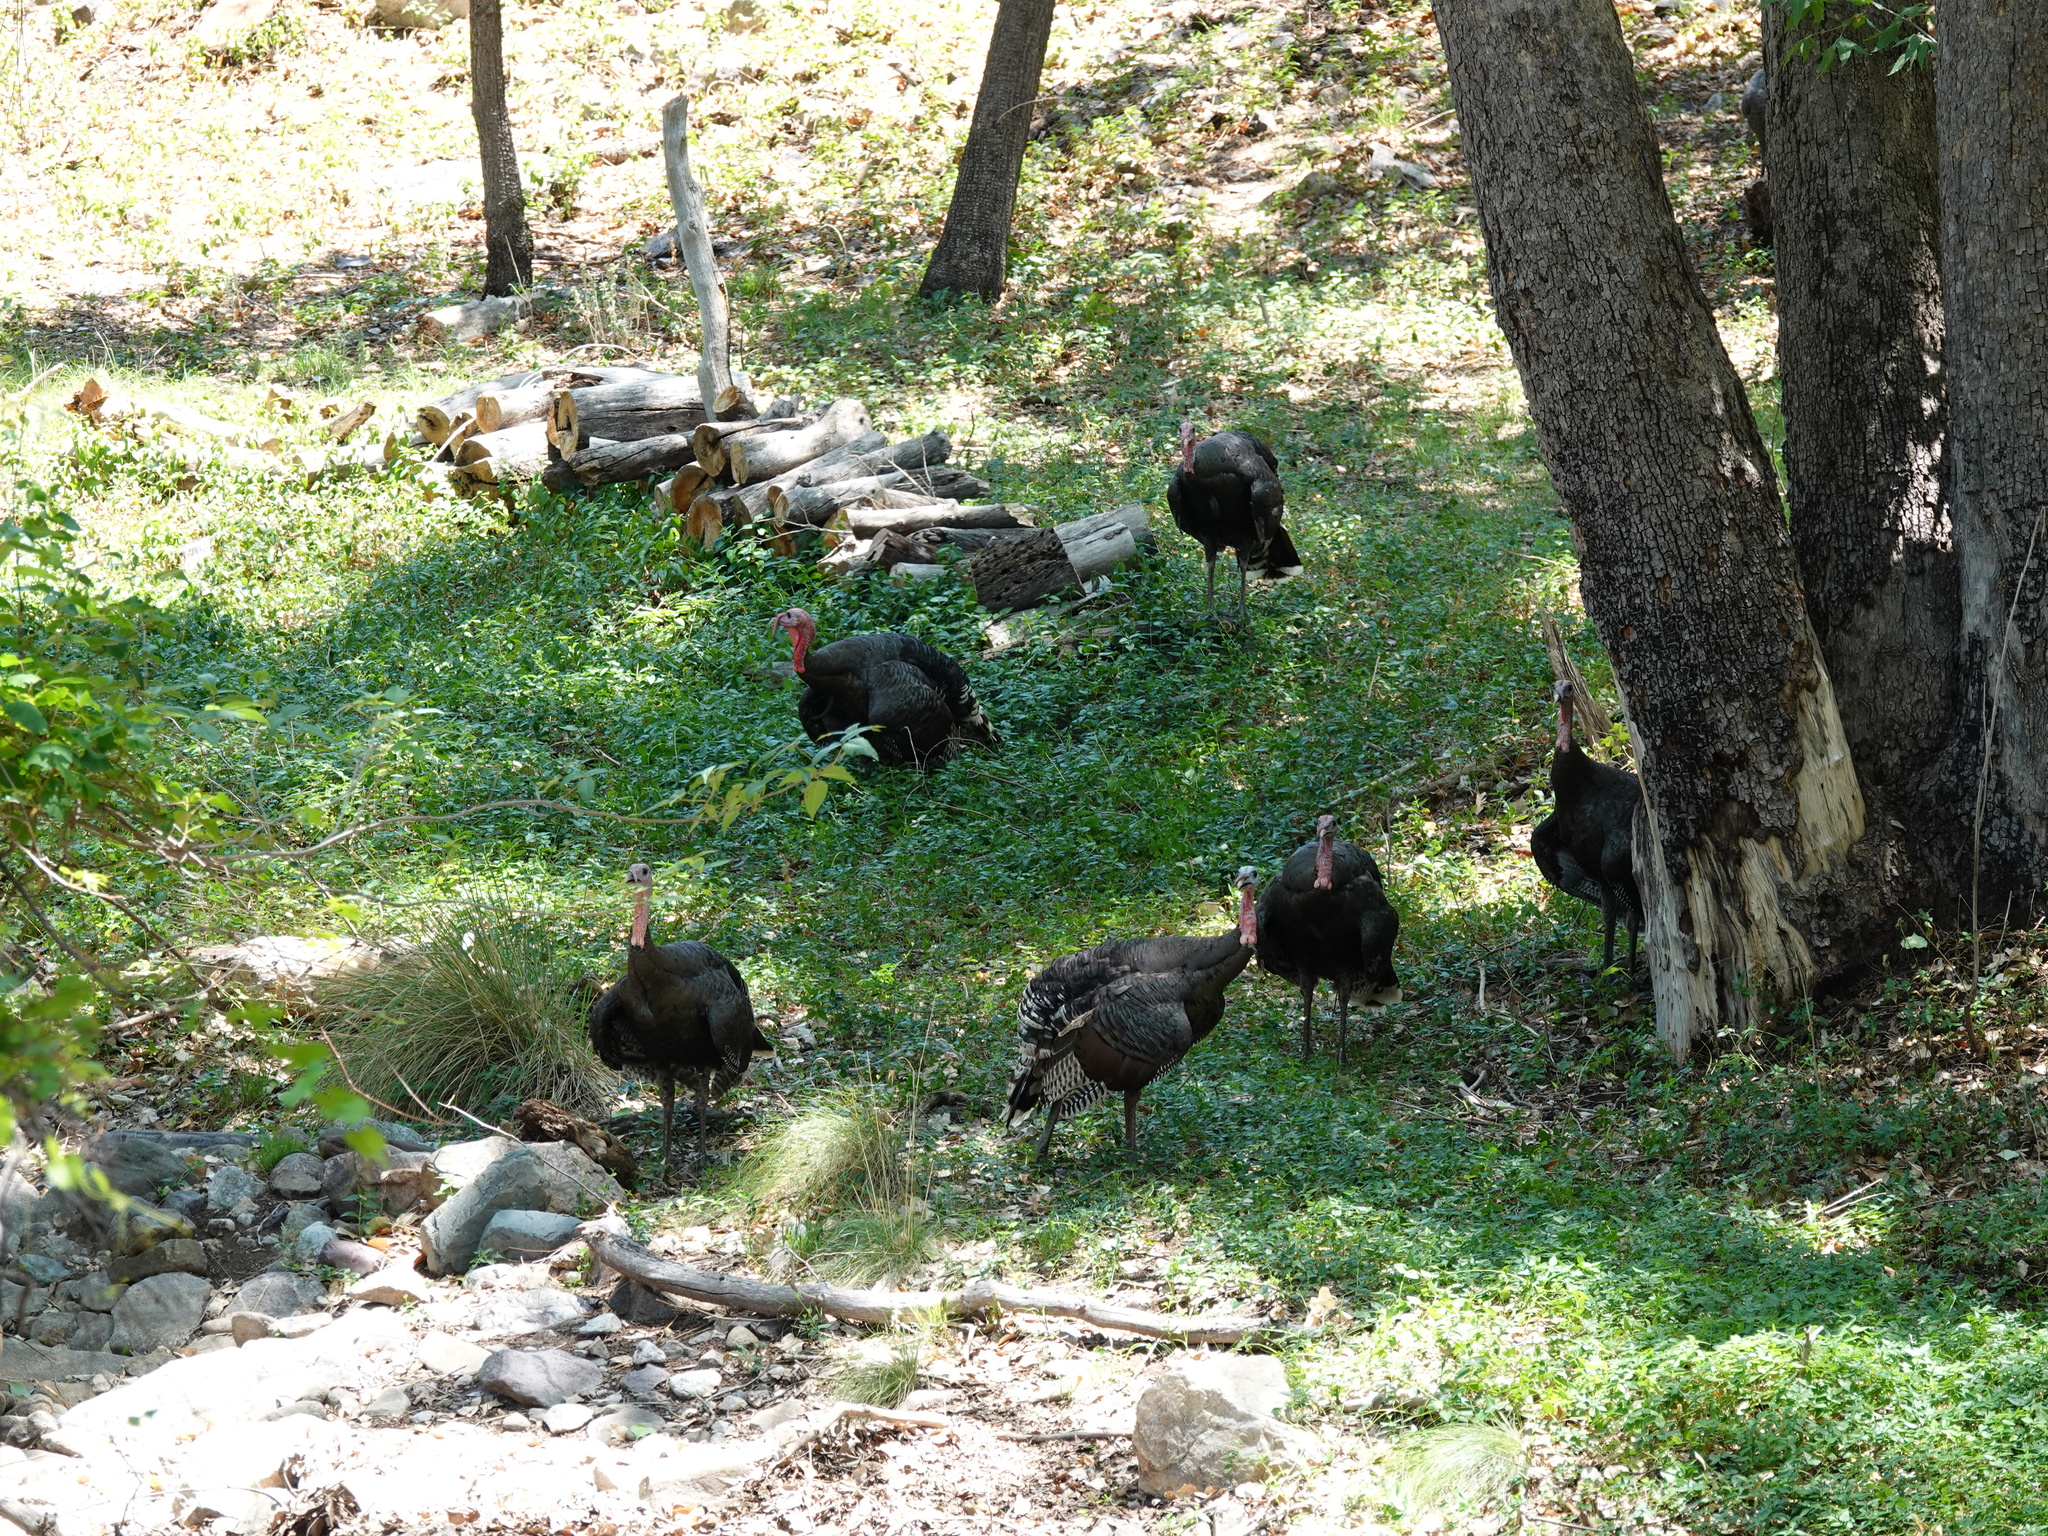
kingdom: Animalia
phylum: Chordata
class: Aves
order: Galliformes
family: Phasianidae
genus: Meleagris
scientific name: Meleagris gallopavo
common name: Wild turkey
